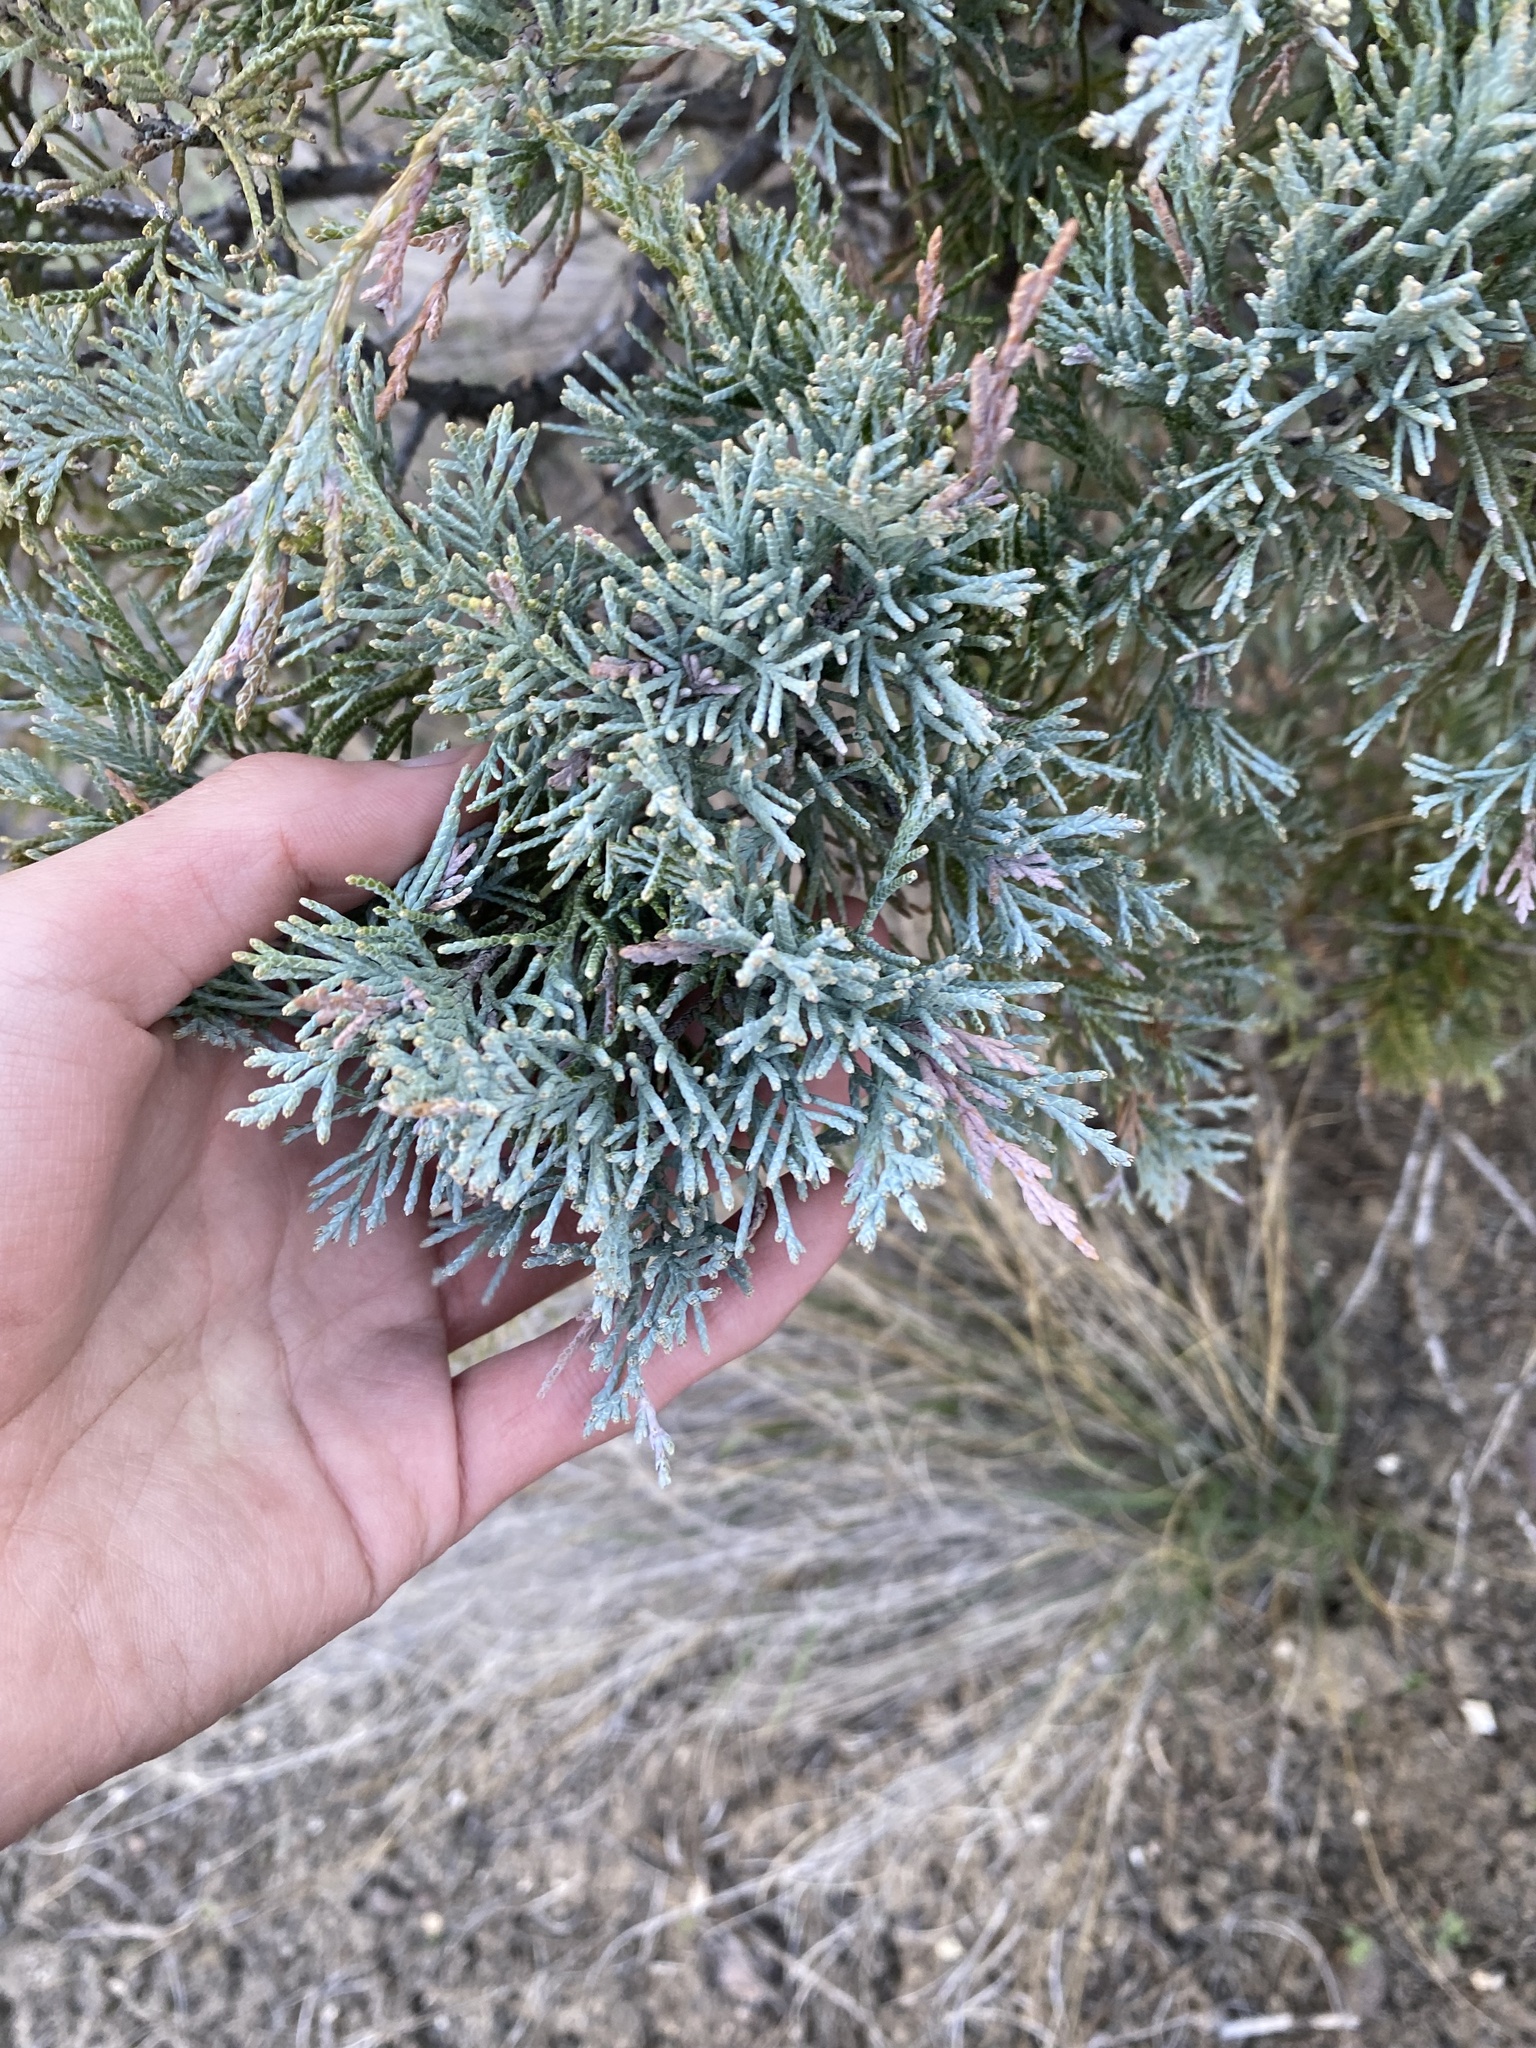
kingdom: Plantae
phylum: Tracheophyta
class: Pinopsida
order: Pinales
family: Cupressaceae
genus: Juniperus
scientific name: Juniperus scopulorum
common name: Rocky mountain juniper
